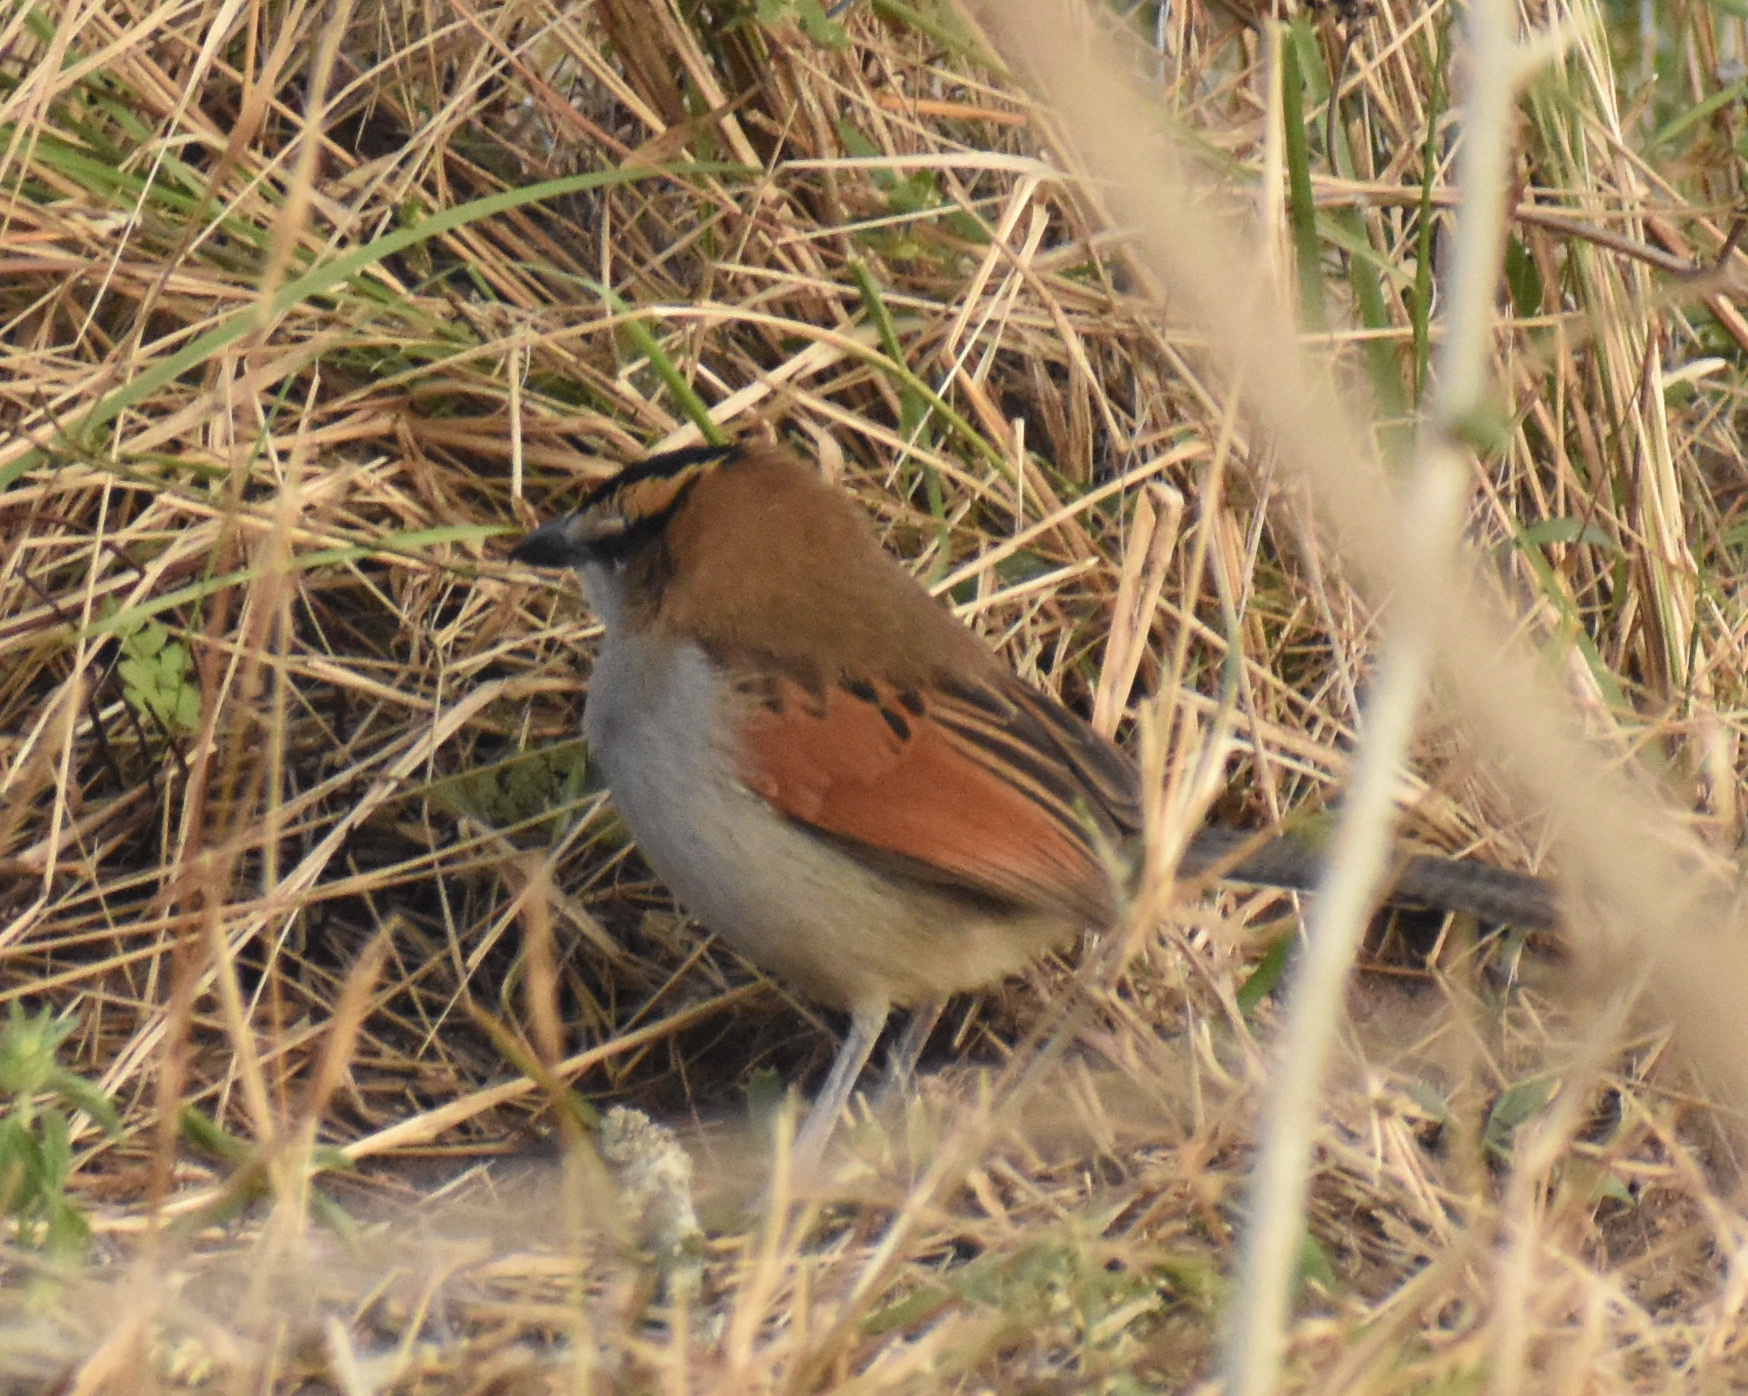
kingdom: Animalia
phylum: Chordata
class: Aves
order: Passeriformes
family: Malaconotidae
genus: Tchagra
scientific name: Tchagra senegalus
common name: Black-crowned tchagra
